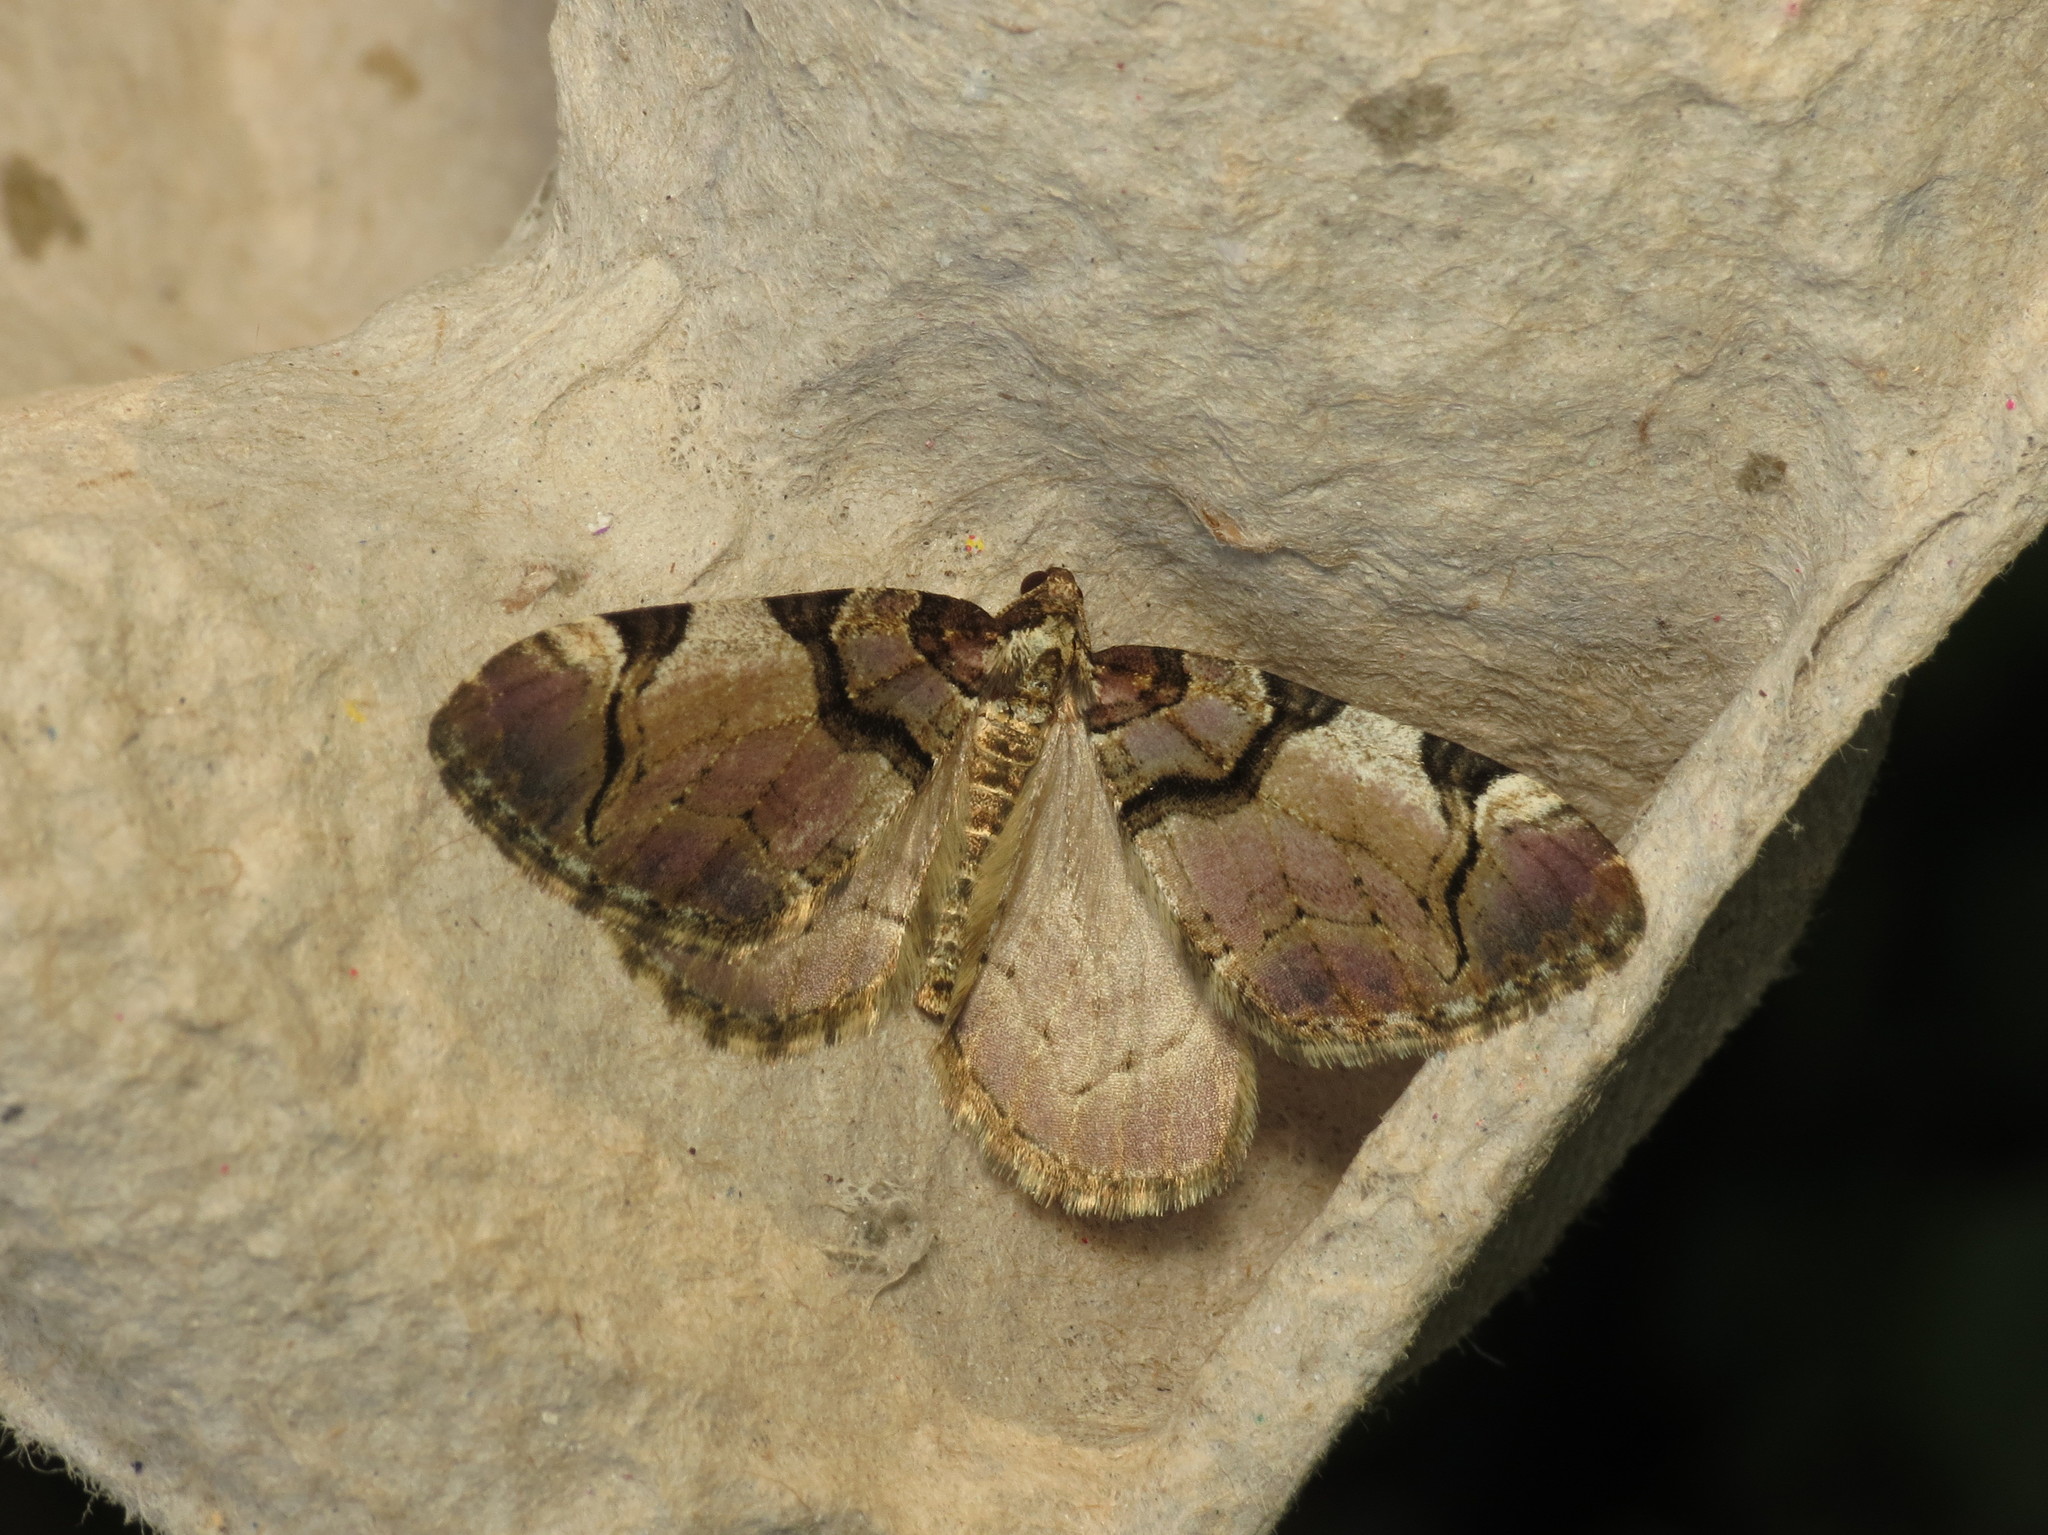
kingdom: Animalia
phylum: Arthropoda
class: Insecta
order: Lepidoptera
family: Geometridae
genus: Anticlea
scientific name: Anticlea derivata
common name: Streamer
